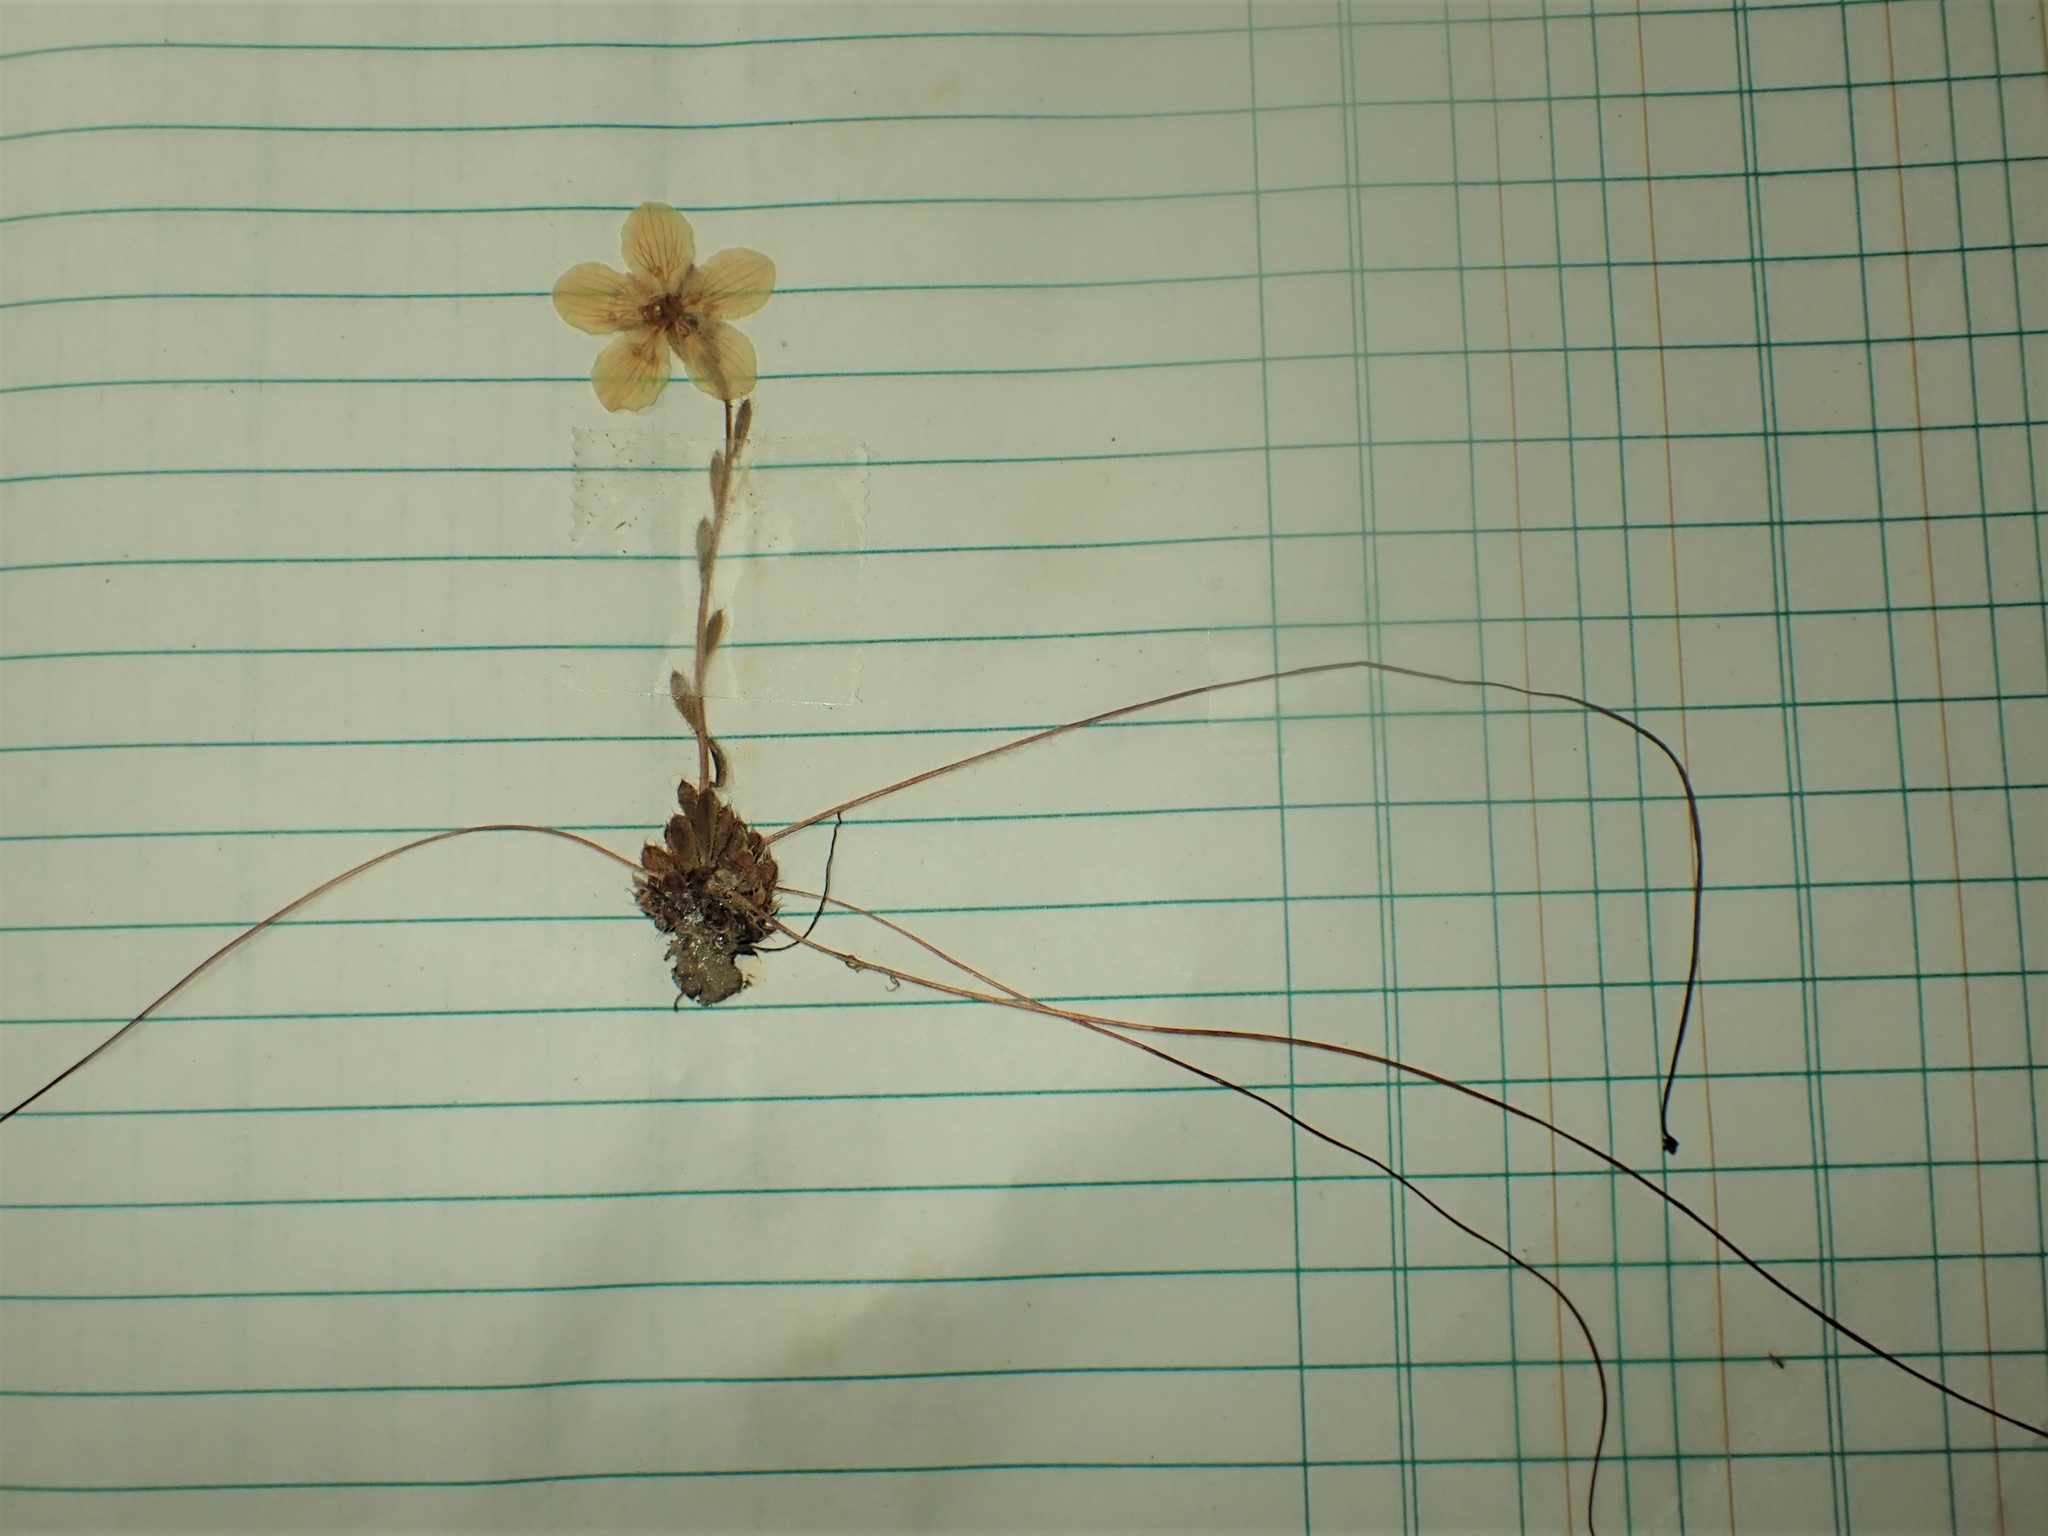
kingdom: Plantae
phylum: Tracheophyta
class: Magnoliopsida
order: Saxifragales
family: Saxifragaceae
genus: Saxifraga
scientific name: Saxifraga flagellaris
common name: Spider saxifrage
